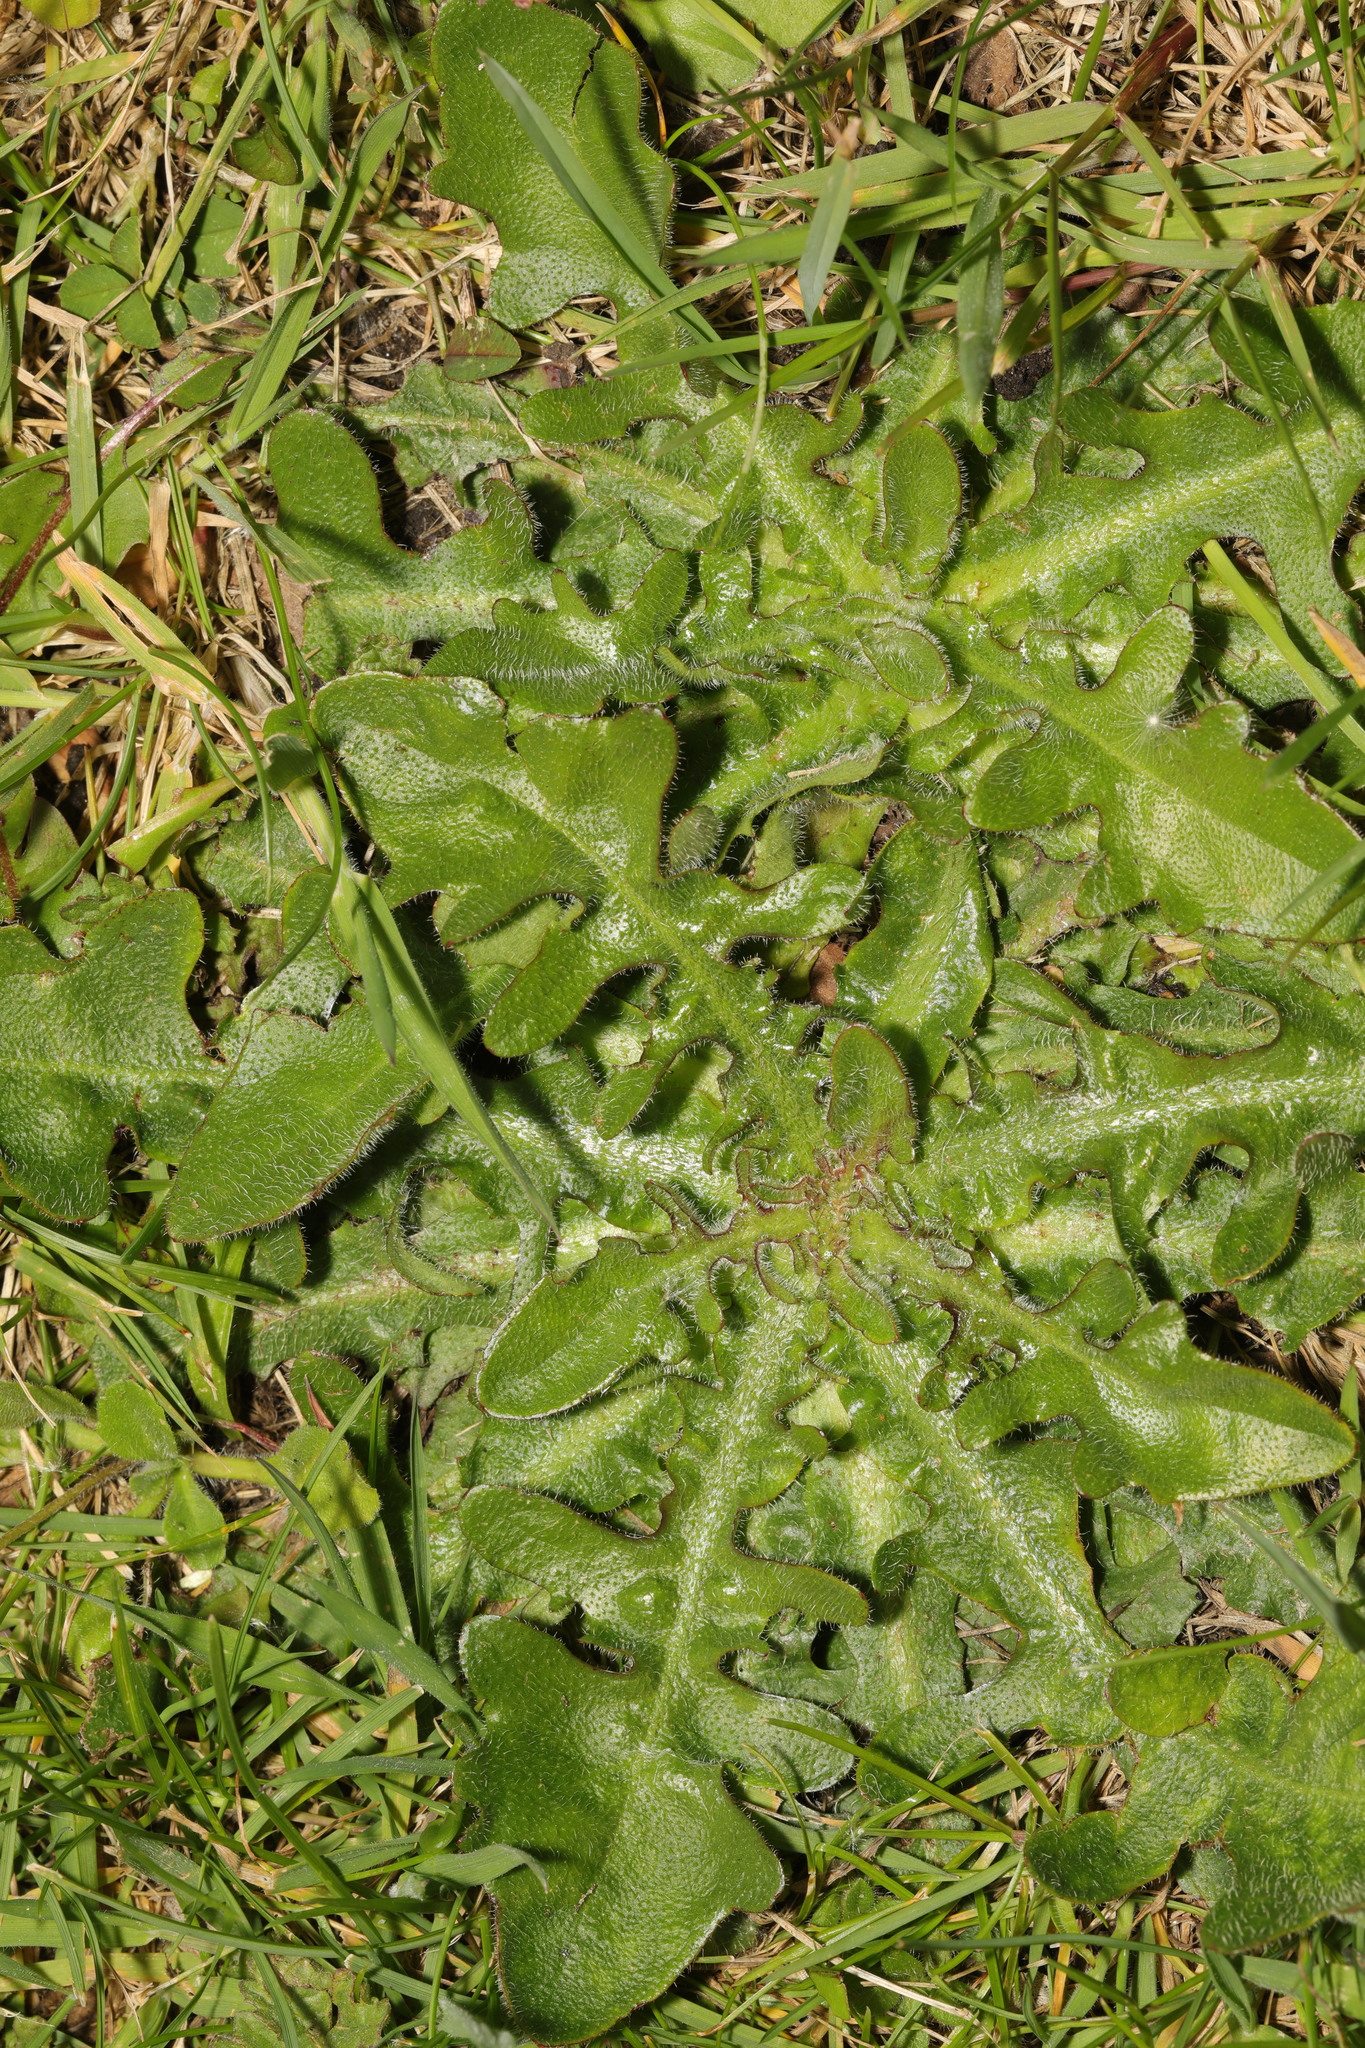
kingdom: Plantae
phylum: Tracheophyta
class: Magnoliopsida
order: Asterales
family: Asteraceae
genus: Hypochaeris
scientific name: Hypochaeris radicata
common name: Flatweed
